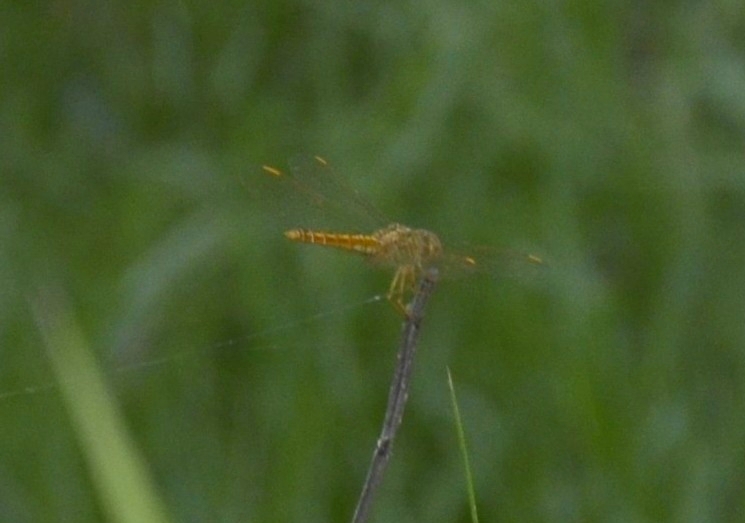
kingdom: Animalia
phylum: Arthropoda
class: Insecta
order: Odonata
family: Libellulidae
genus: Brachythemis
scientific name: Brachythemis contaminata
